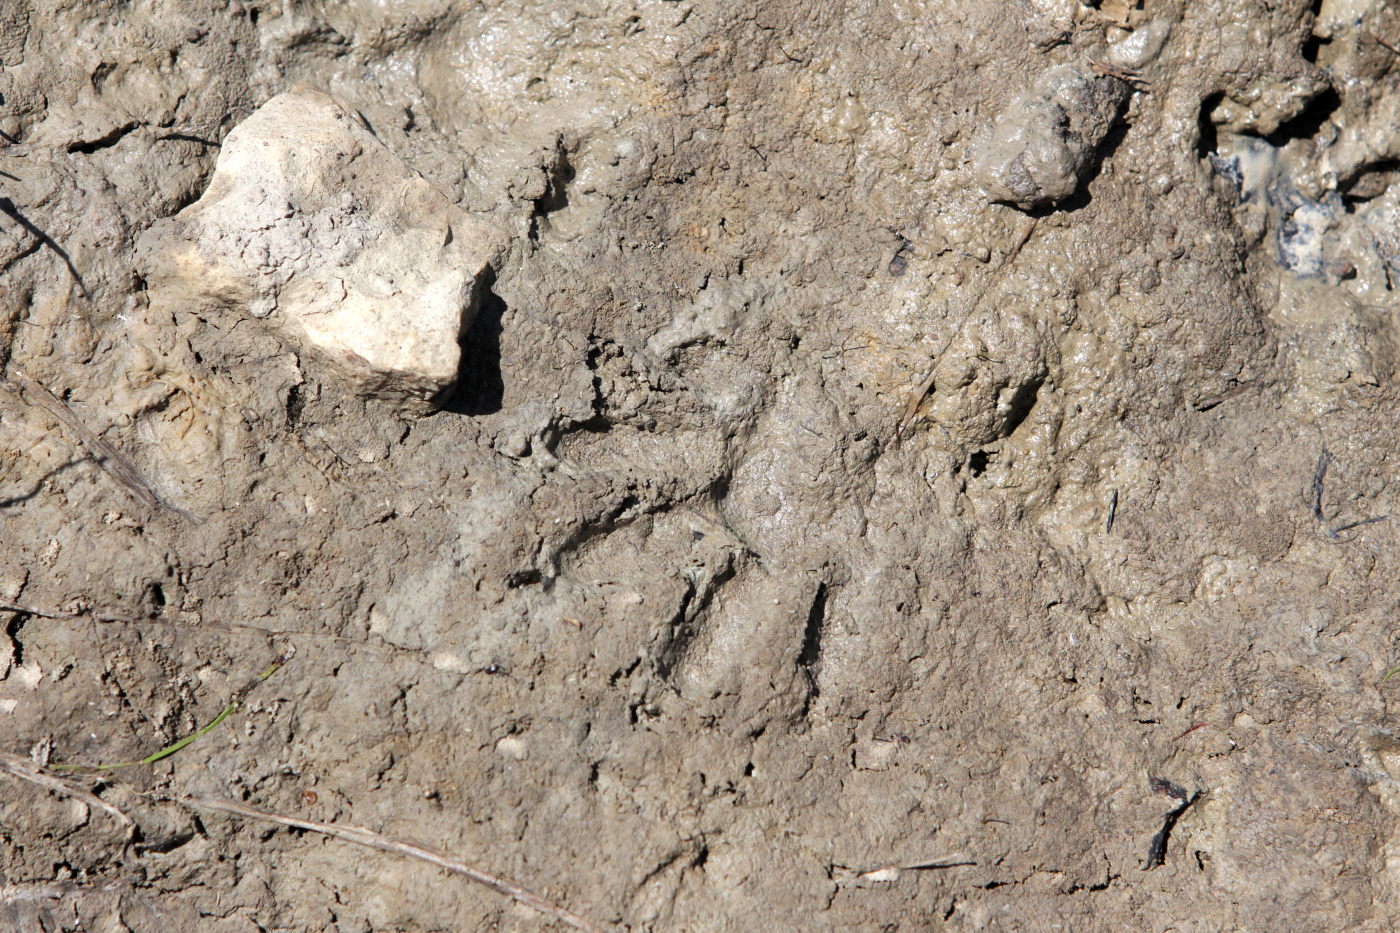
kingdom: Animalia
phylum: Chordata
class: Mammalia
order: Carnivora
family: Procyonidae
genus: Procyon
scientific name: Procyon lotor
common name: Raccoon
